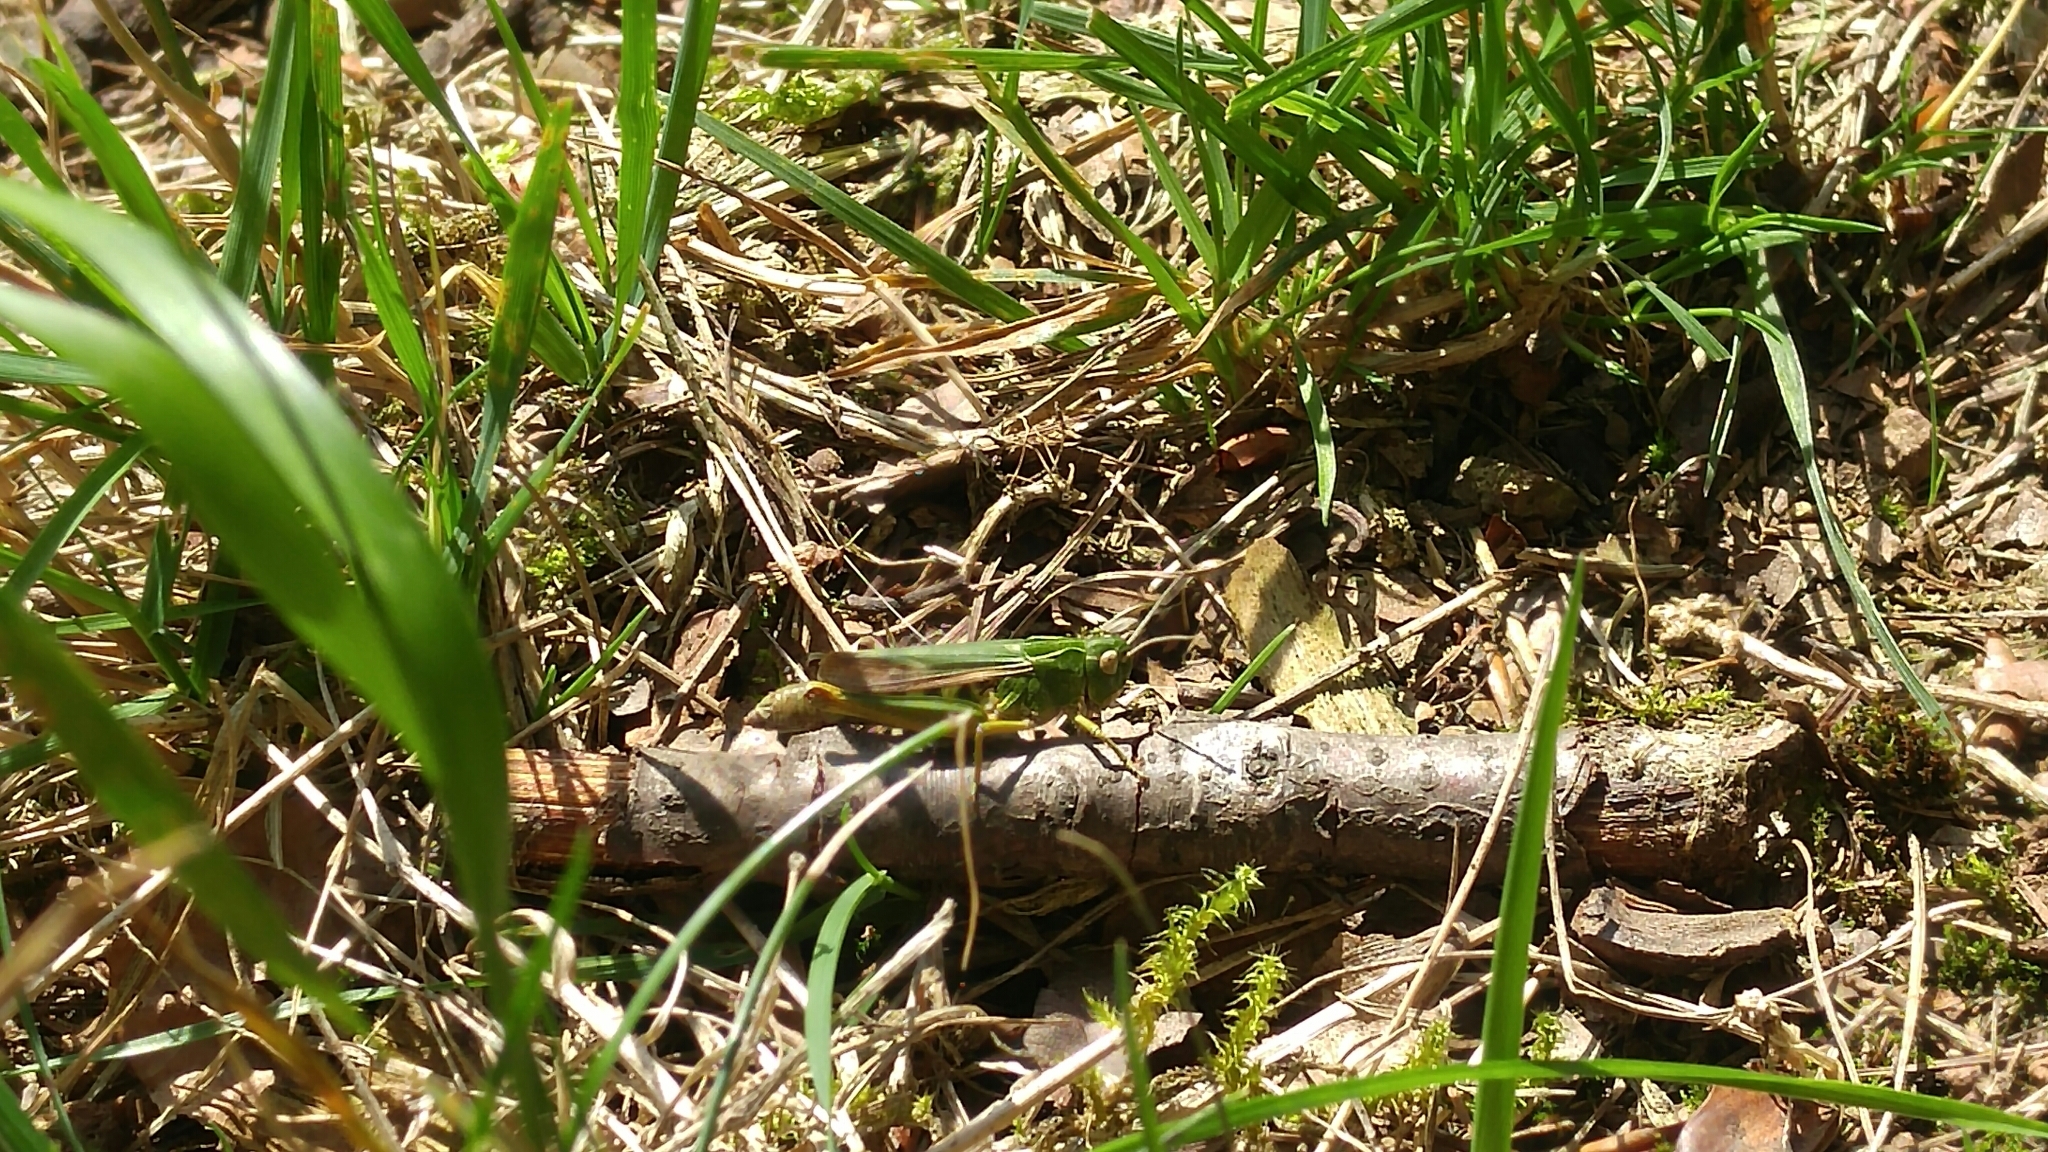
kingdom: Animalia
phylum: Arthropoda
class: Insecta
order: Orthoptera
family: Acrididae
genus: Omocestus
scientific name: Omocestus viridulus
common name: Common green grasshopper
